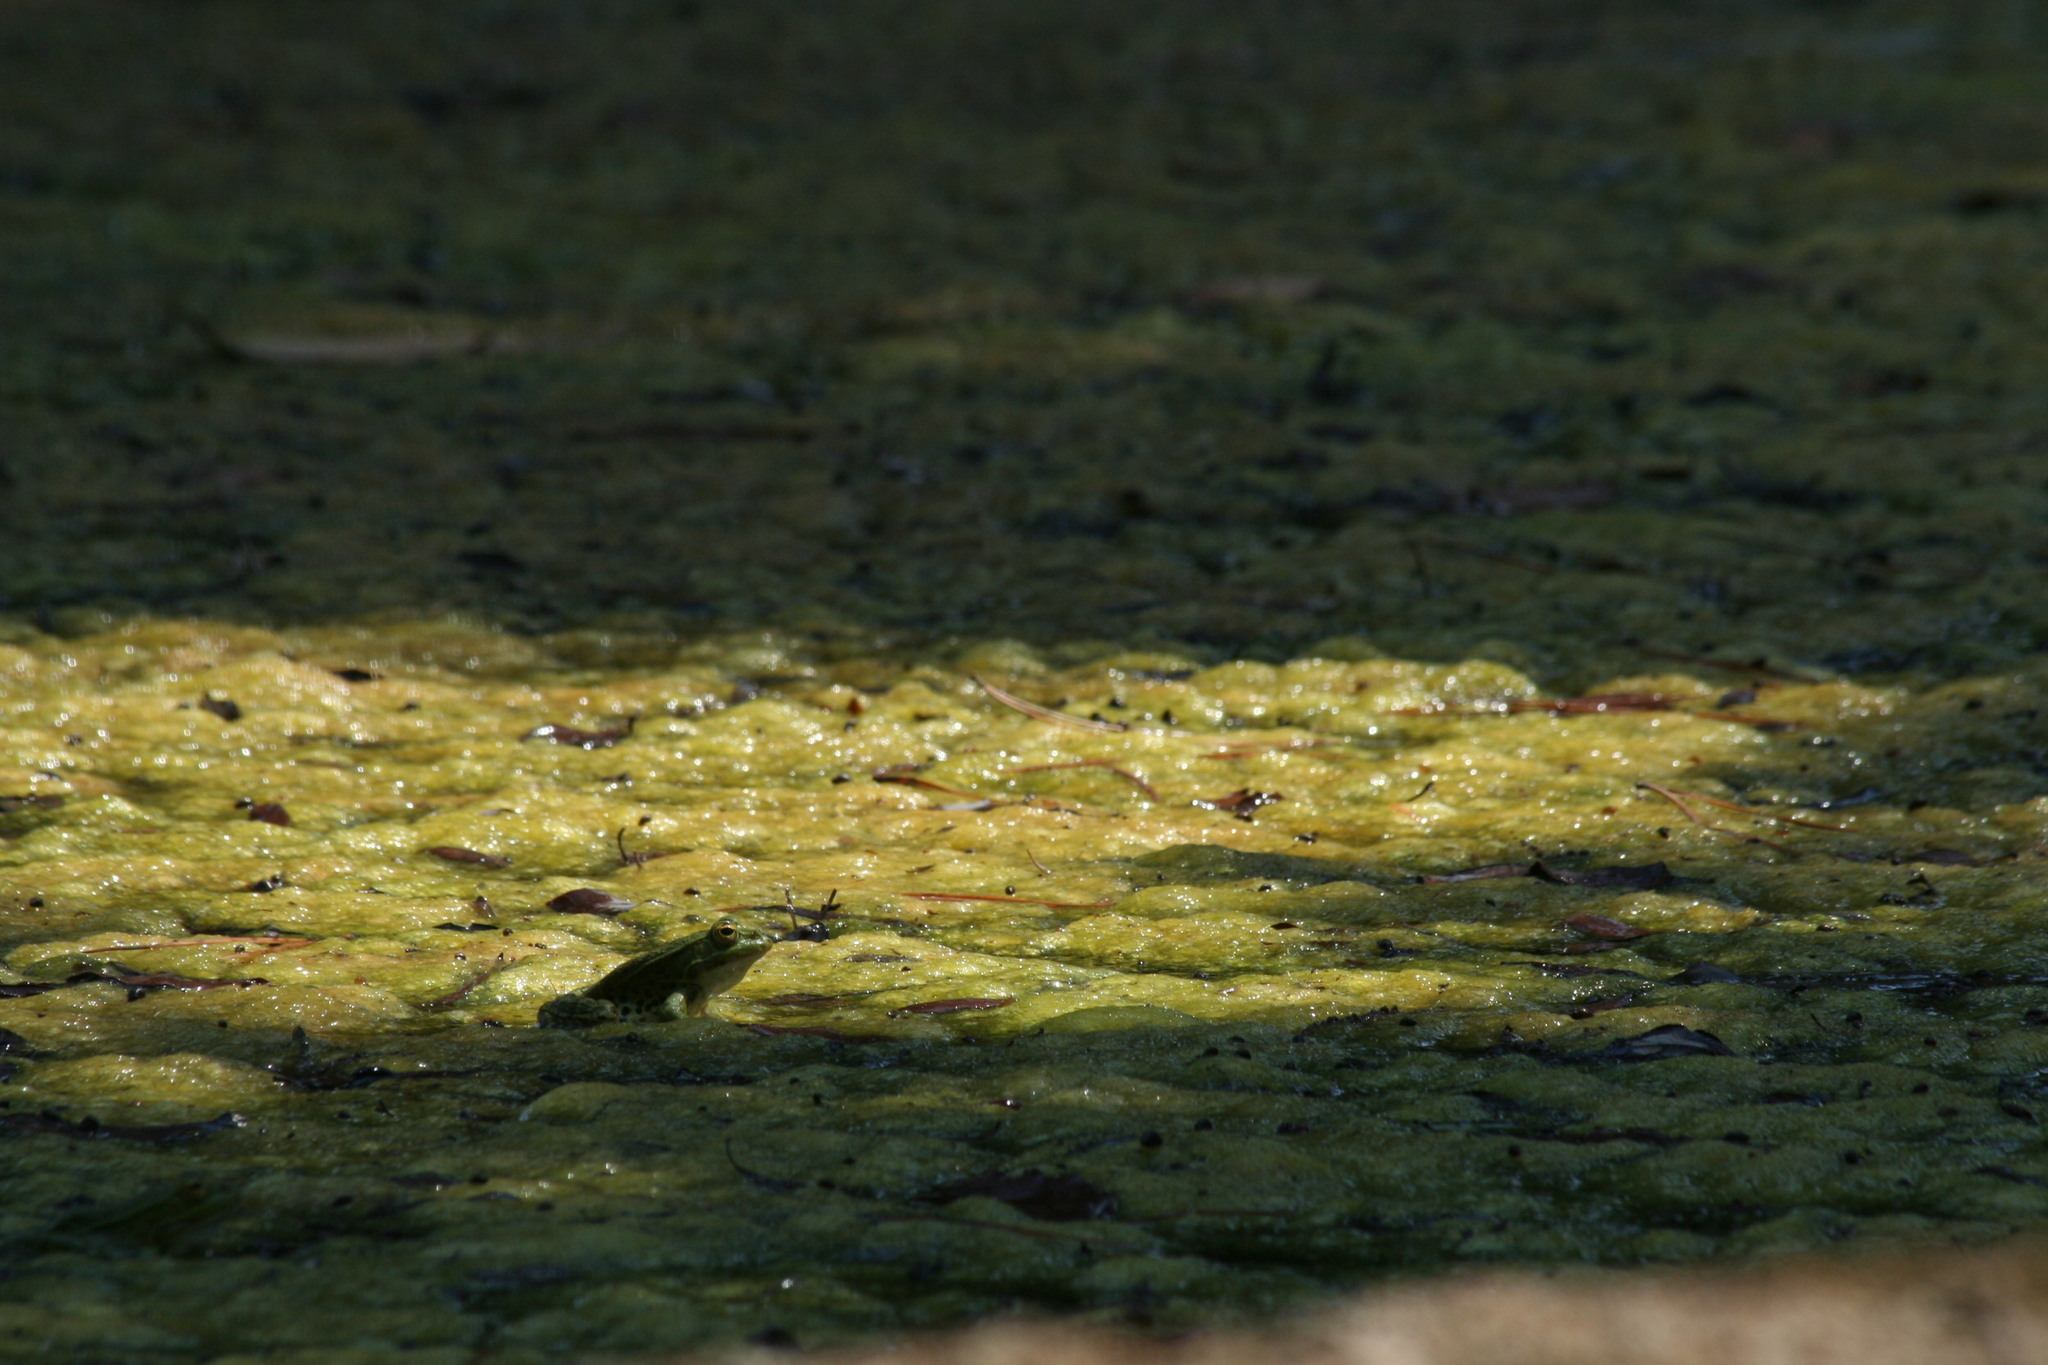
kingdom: Animalia
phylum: Chordata
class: Amphibia
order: Anura
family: Ranidae
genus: Pelophylax
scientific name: Pelophylax
